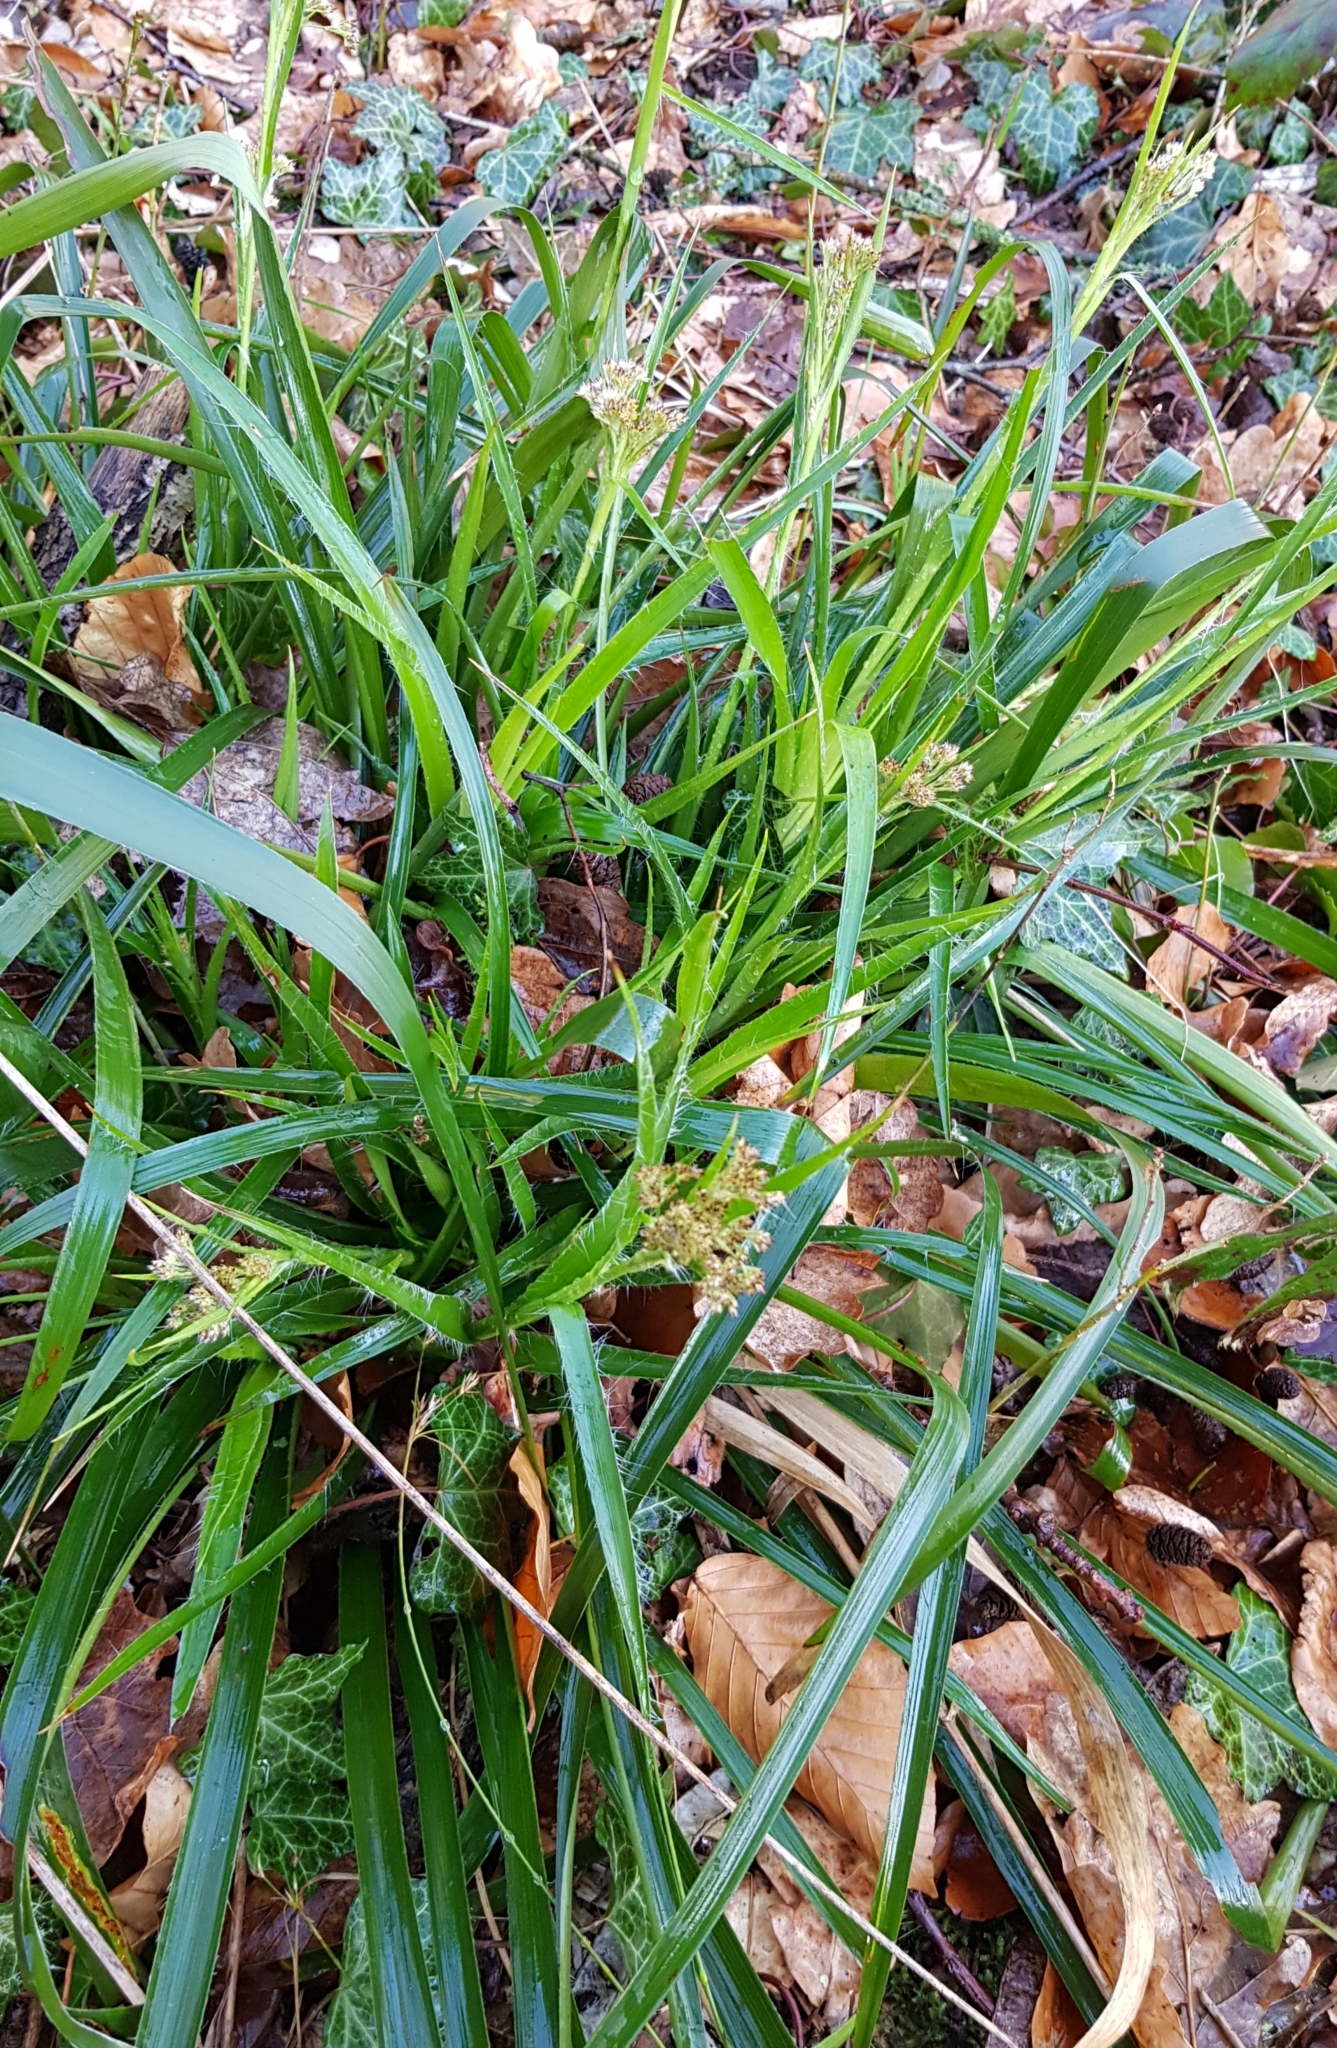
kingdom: Plantae
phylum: Tracheophyta
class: Liliopsida
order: Poales
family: Juncaceae
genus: Luzula
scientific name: Luzula sylvatica
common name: Great wood-rush
